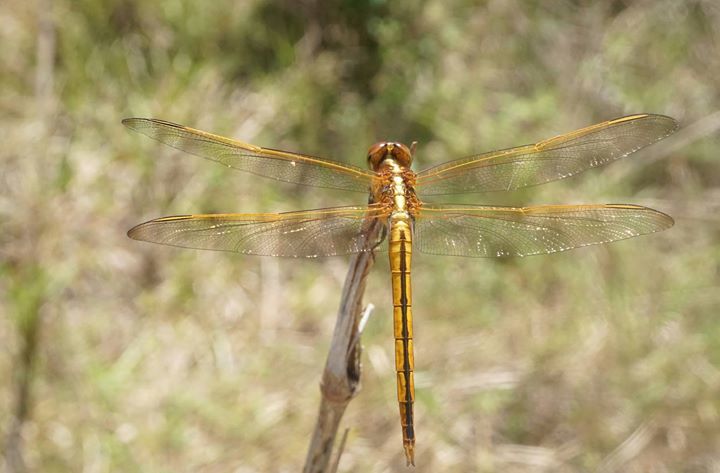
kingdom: Animalia
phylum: Arthropoda
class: Insecta
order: Odonata
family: Libellulidae
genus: Libellula
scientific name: Libellula needhami
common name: Needham's skimmer
